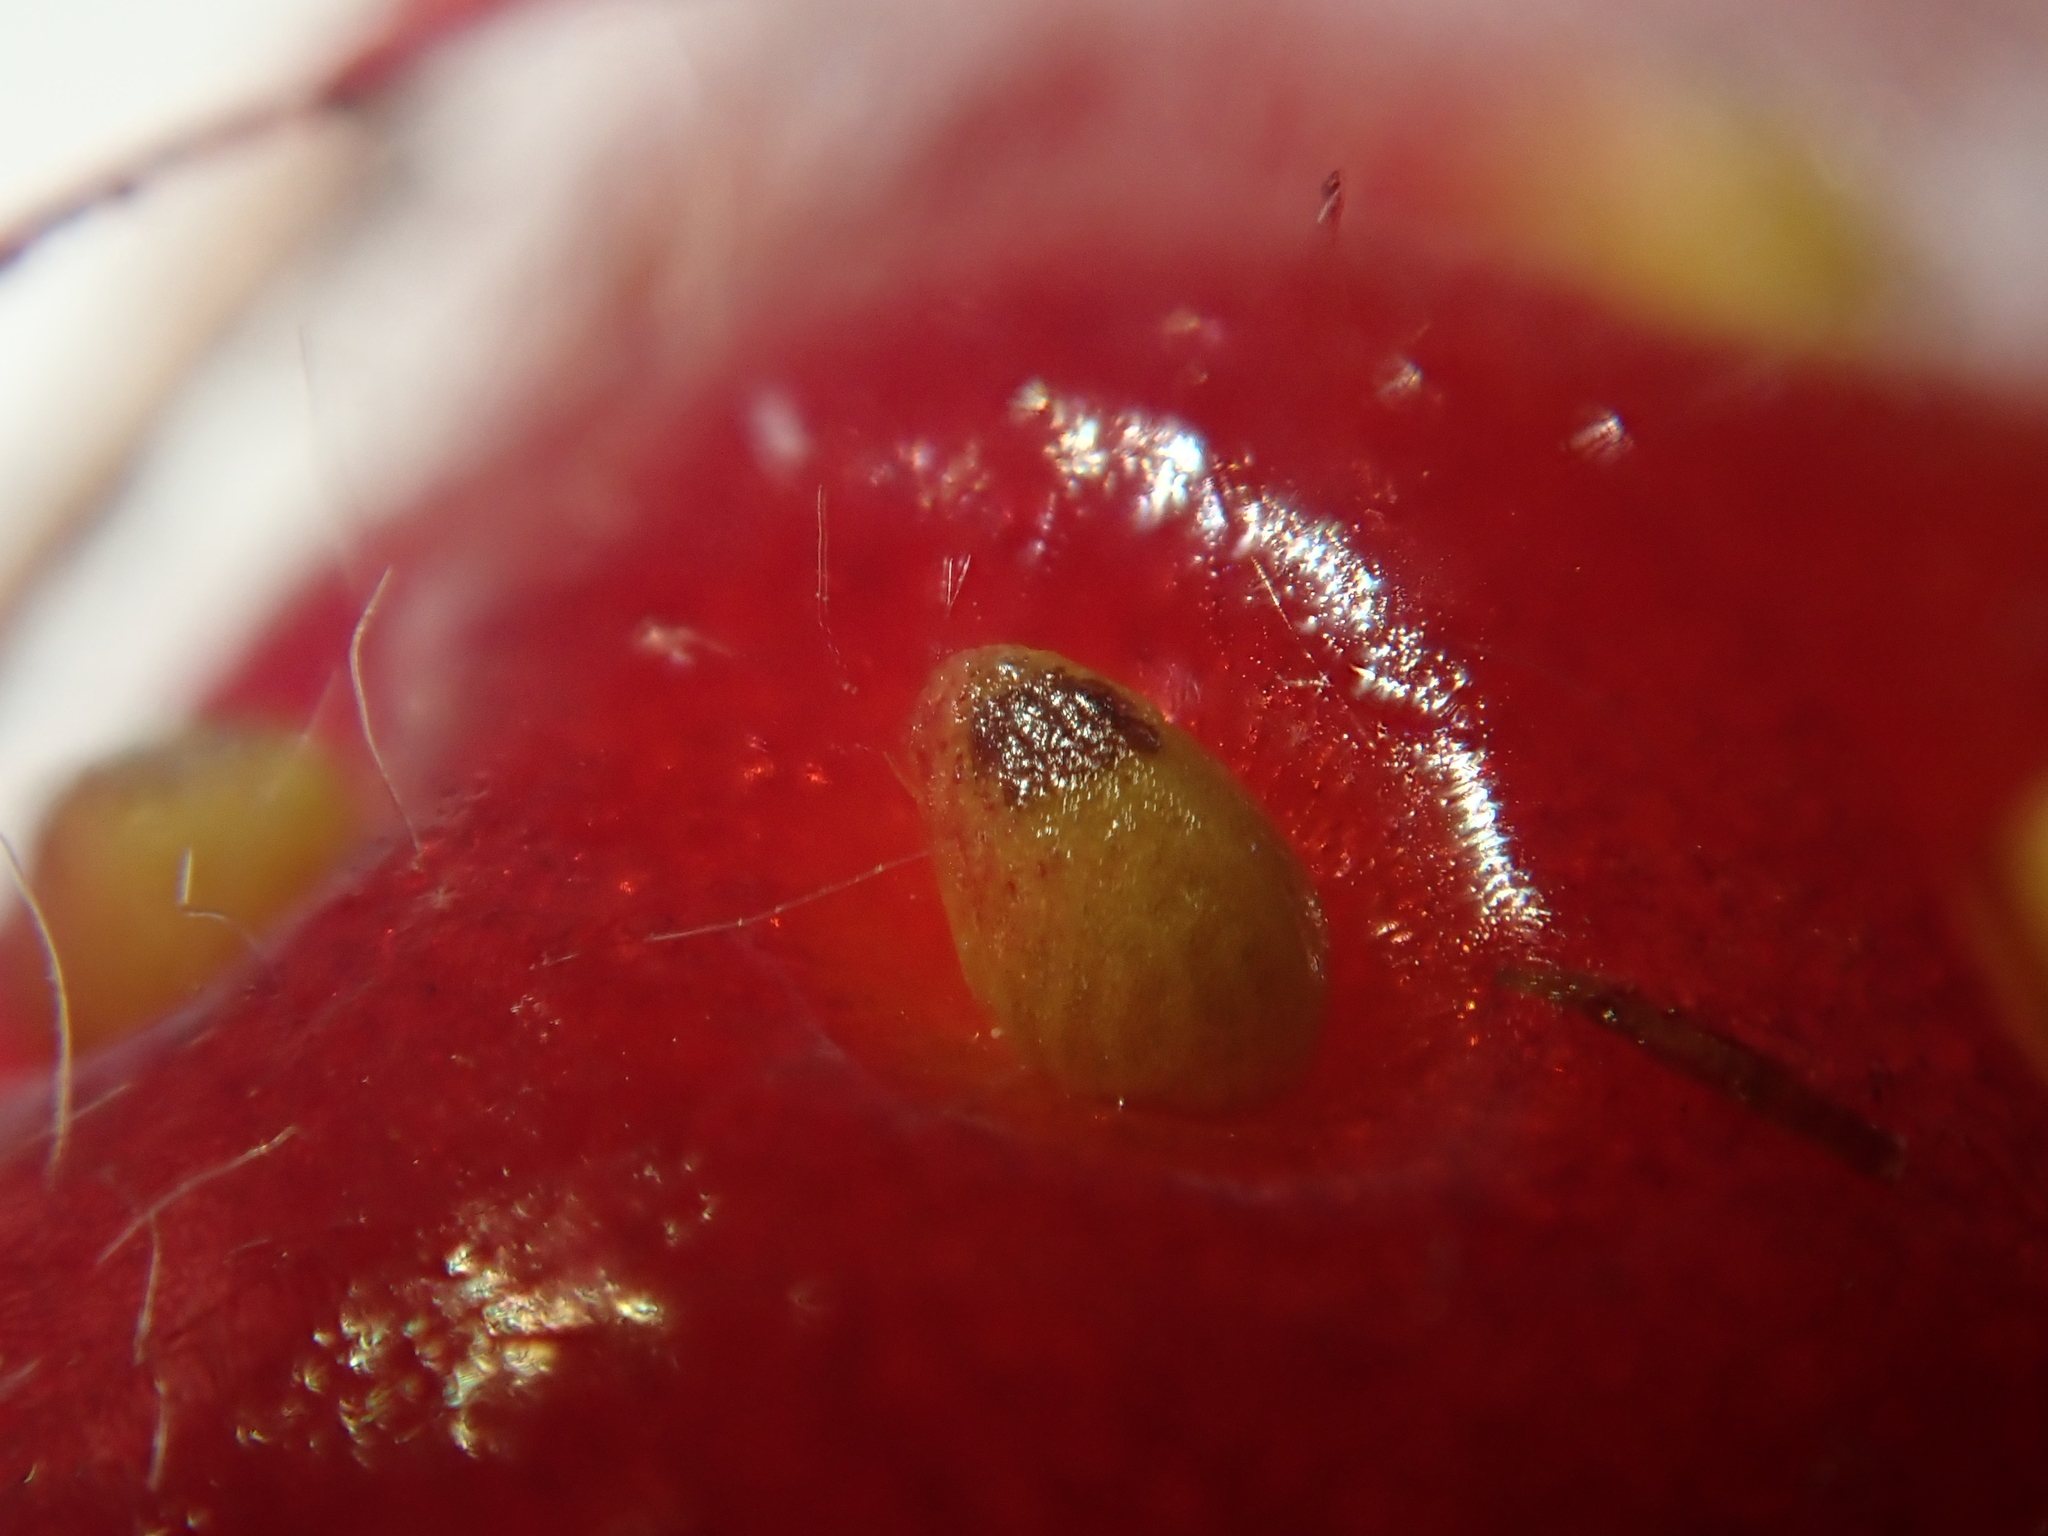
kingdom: Plantae
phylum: Tracheophyta
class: Magnoliopsida
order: Rosales
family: Rosaceae
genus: Fragaria
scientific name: Fragaria ananassa
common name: Garden strawberry
